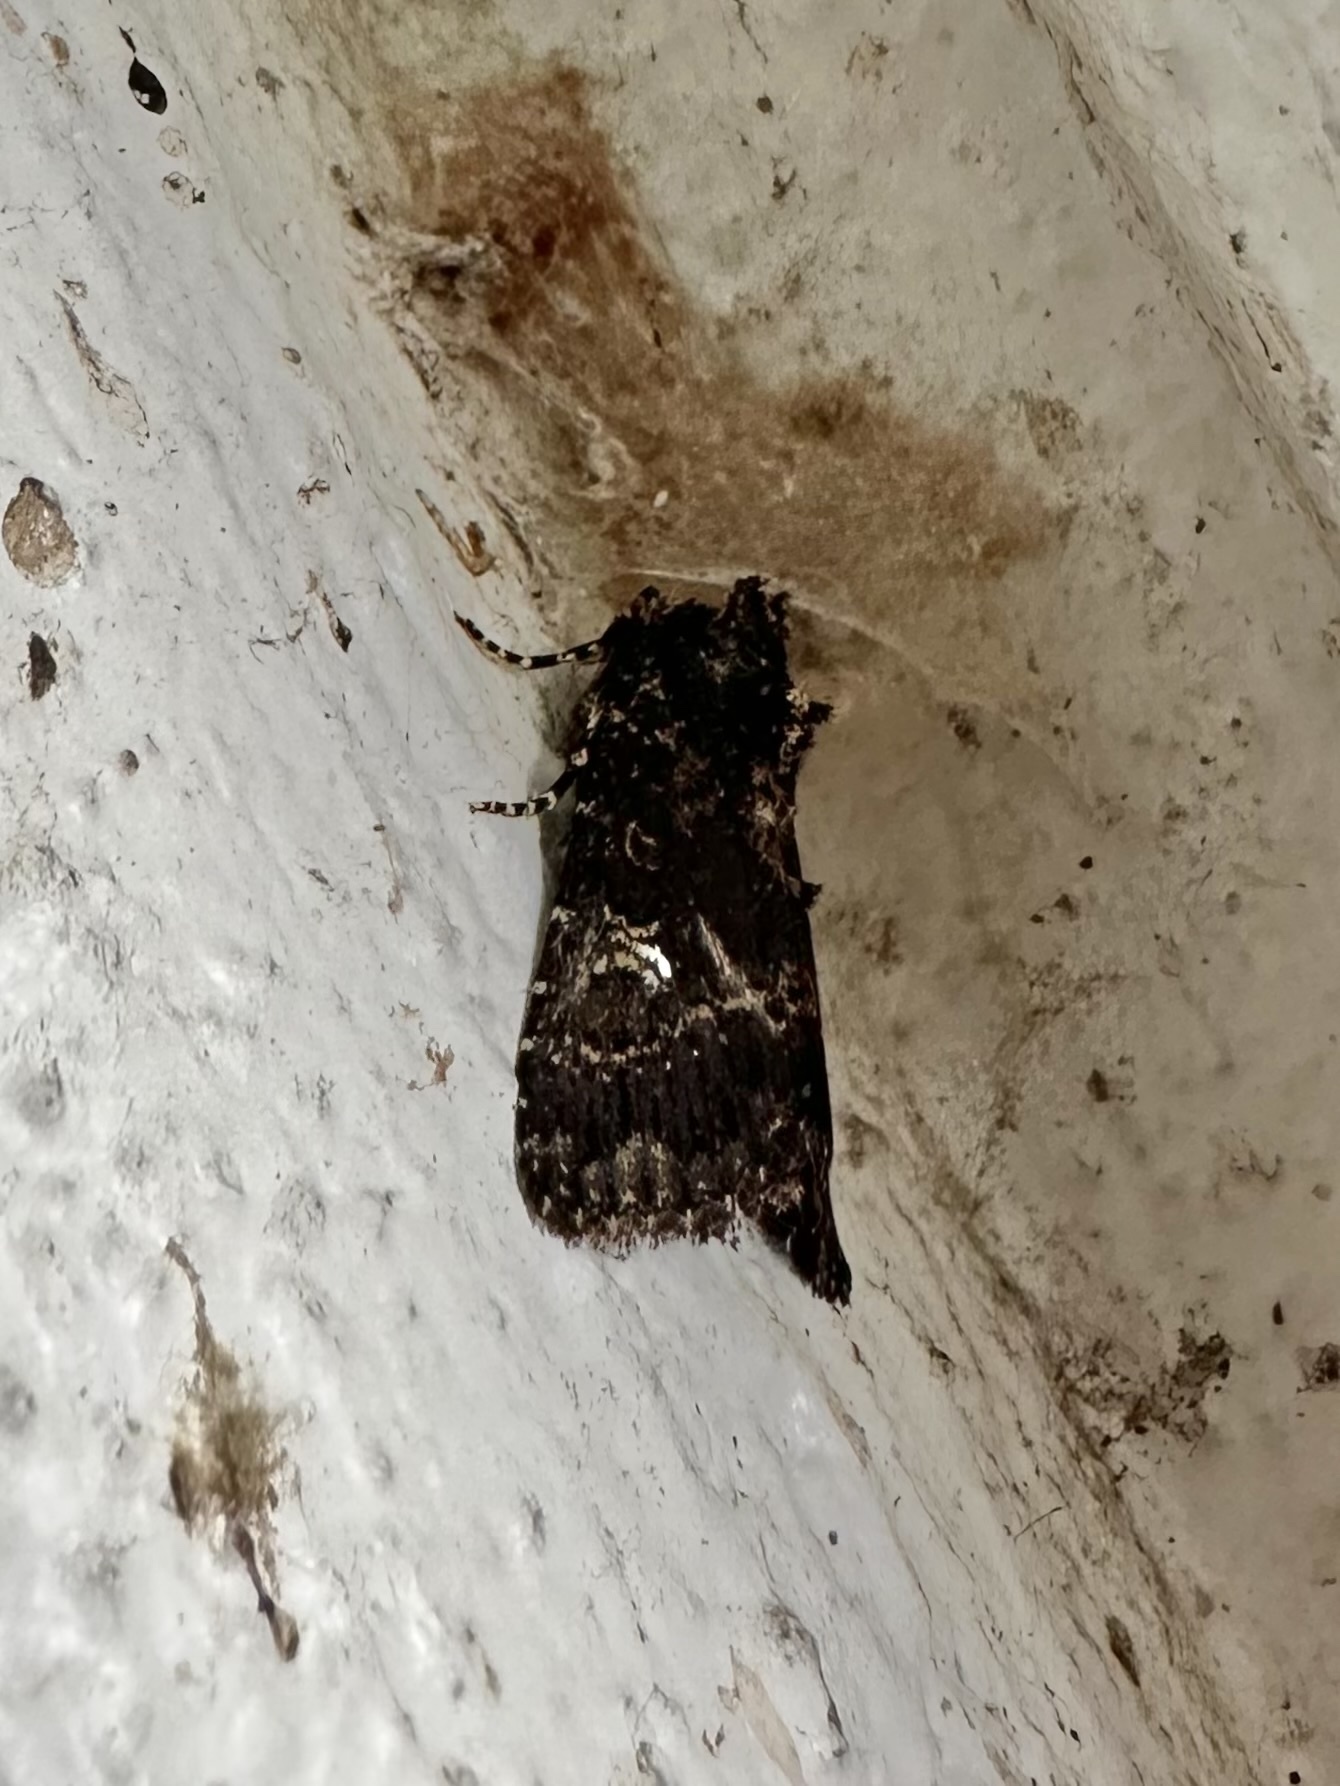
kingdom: Animalia
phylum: Arthropoda
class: Insecta
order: Lepidoptera
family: Noctuidae
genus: Condica
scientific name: Condica albigera
